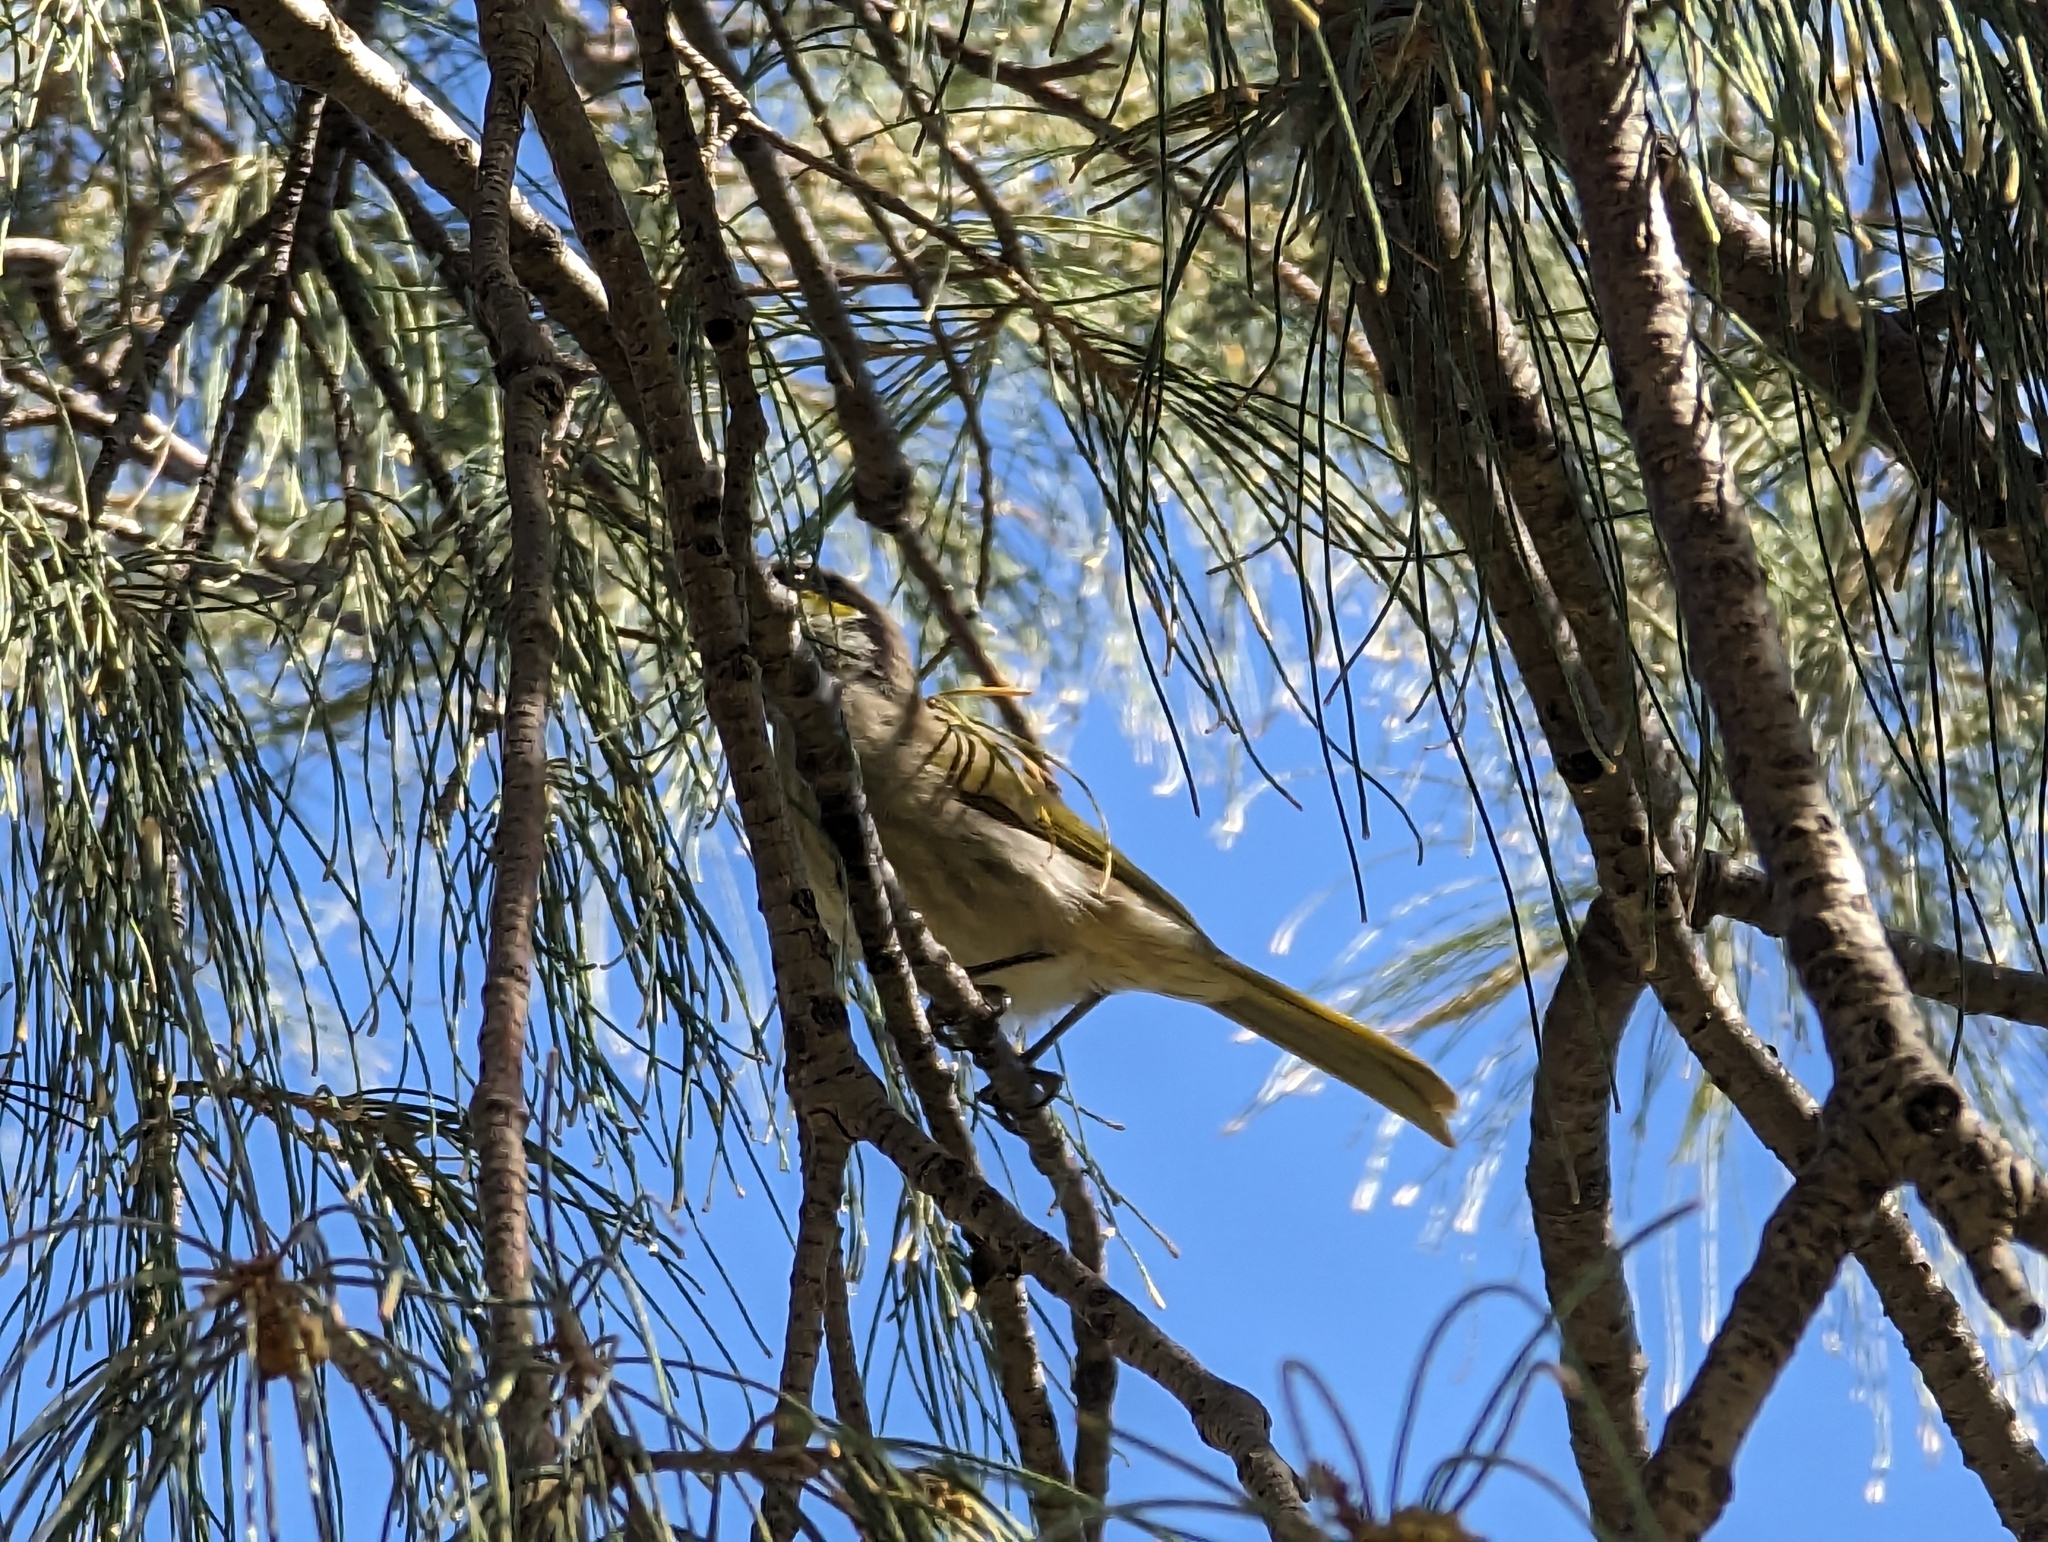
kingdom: Animalia
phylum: Chordata
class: Aves
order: Passeriformes
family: Meliphagidae
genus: Gavicalis
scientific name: Gavicalis virescens
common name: Singing honeyeater
